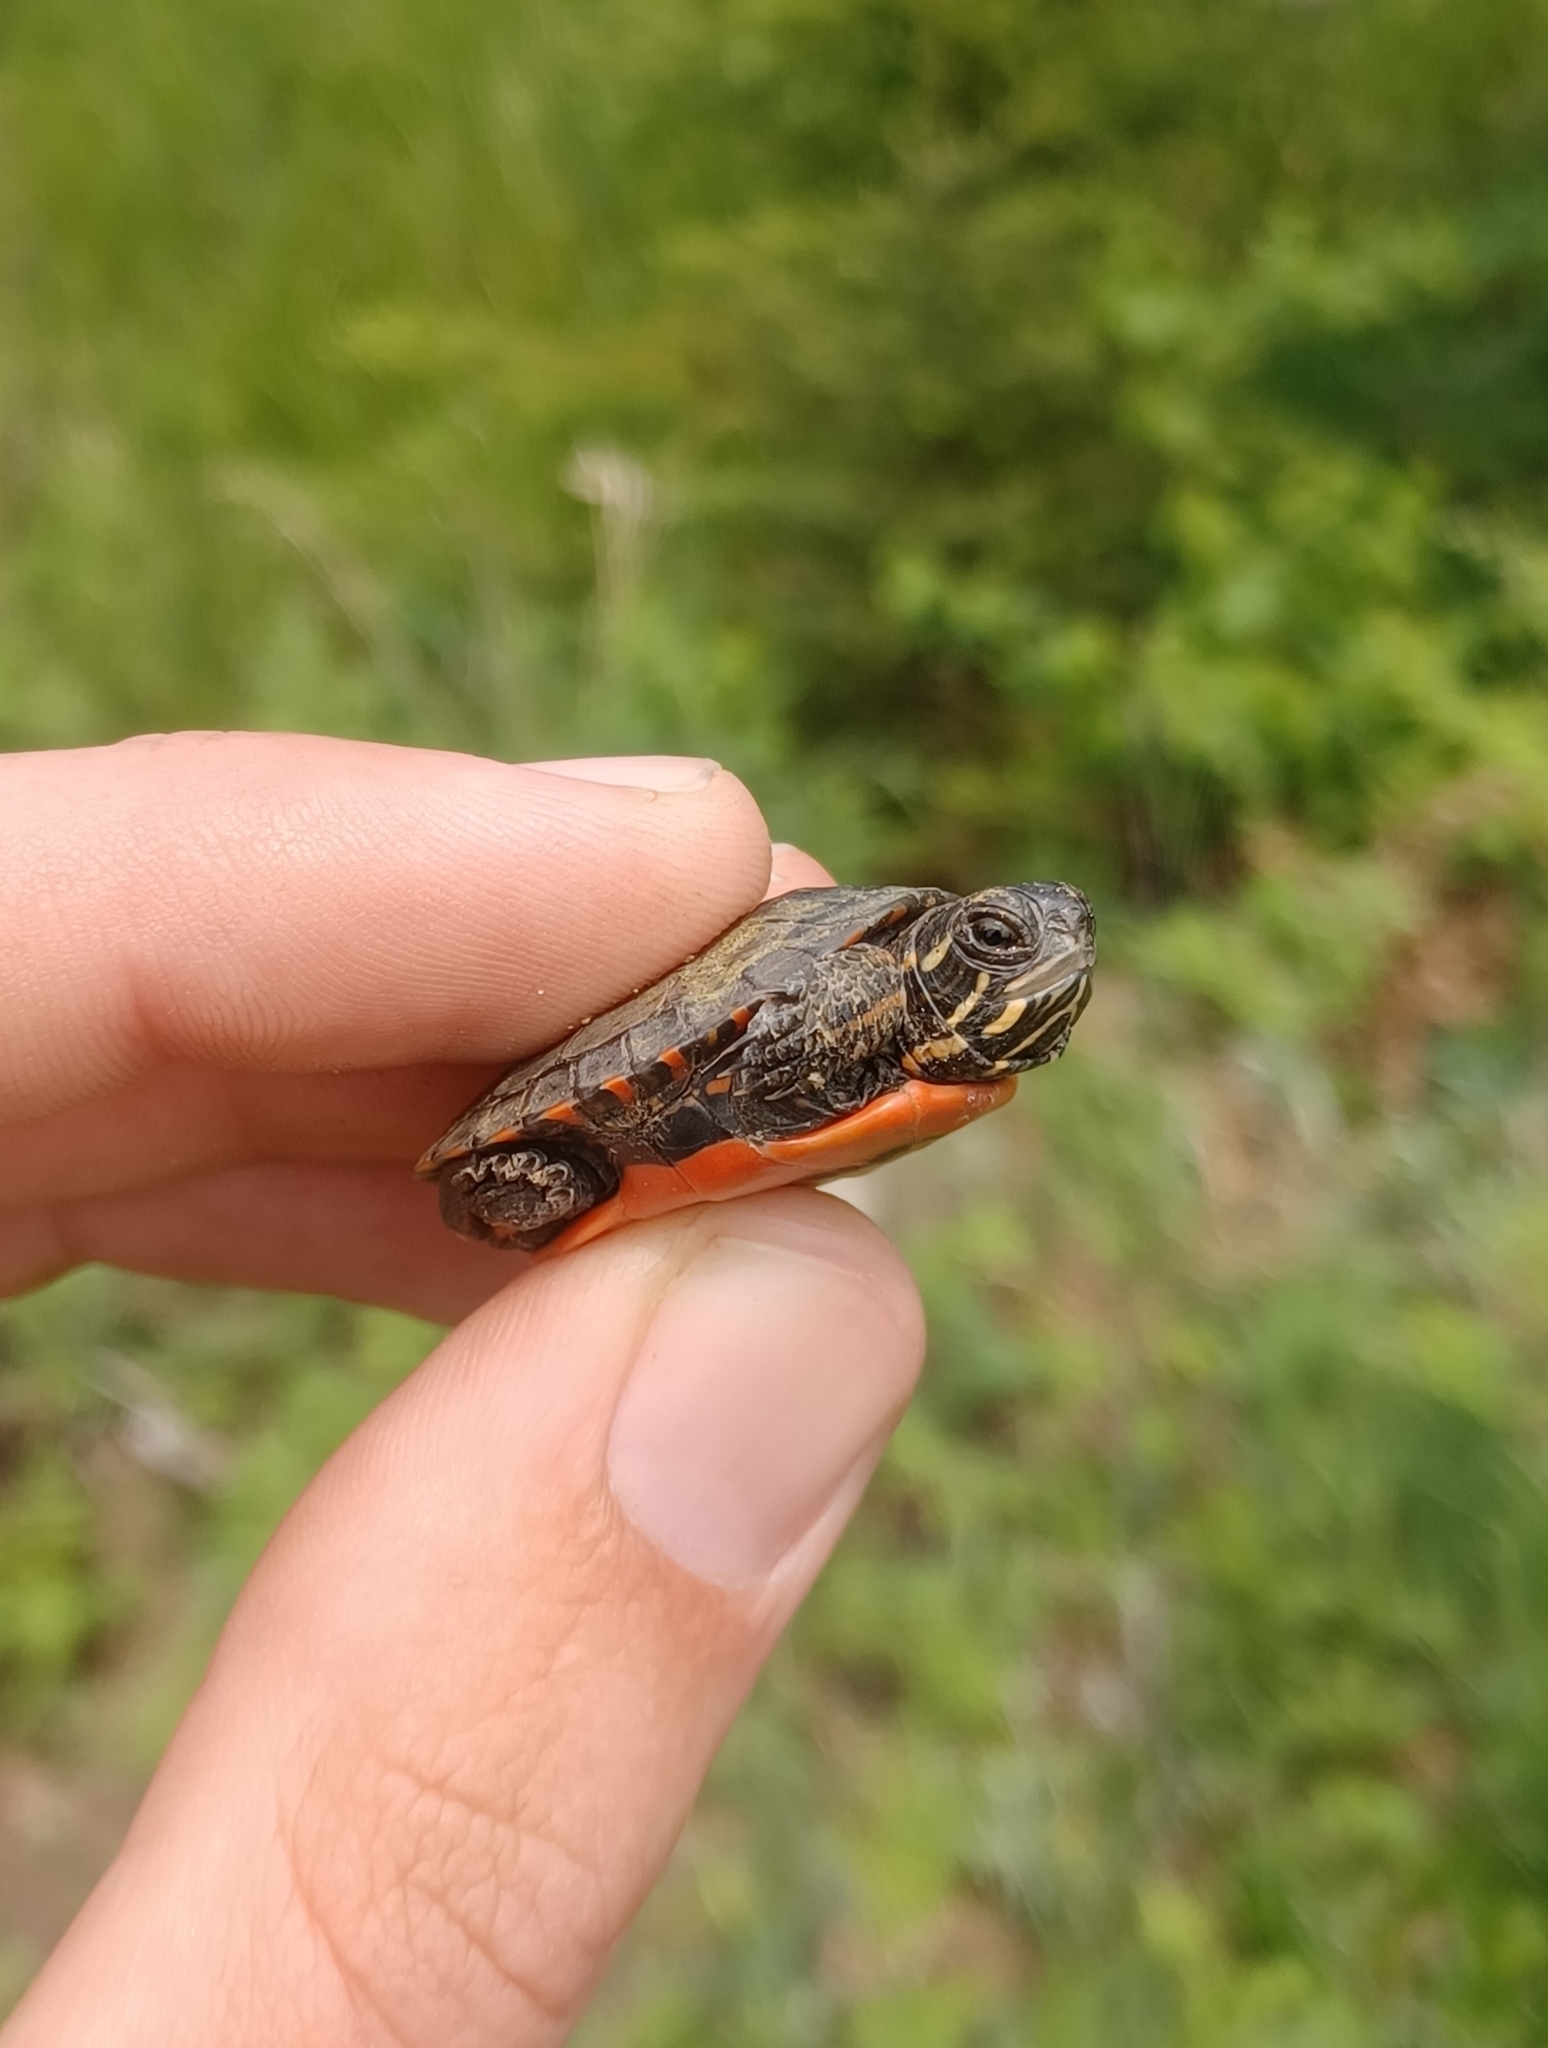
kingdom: Animalia
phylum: Chordata
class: Testudines
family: Emydidae
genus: Chrysemys
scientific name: Chrysemys picta
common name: Painted turtle
